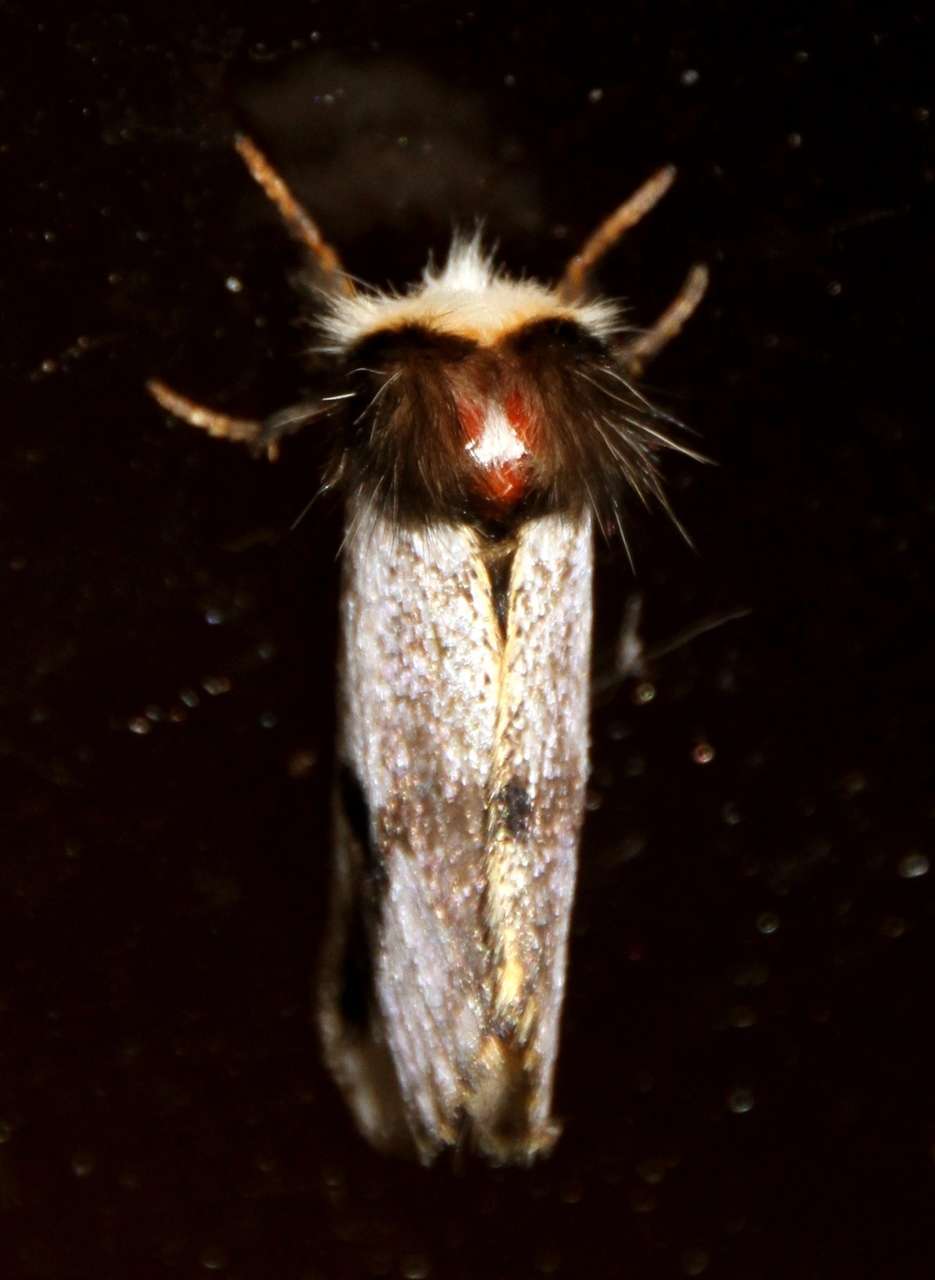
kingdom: Animalia
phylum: Arthropoda
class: Insecta
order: Lepidoptera
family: Notodontidae
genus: Epicoma
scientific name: Epicoma melanospila
